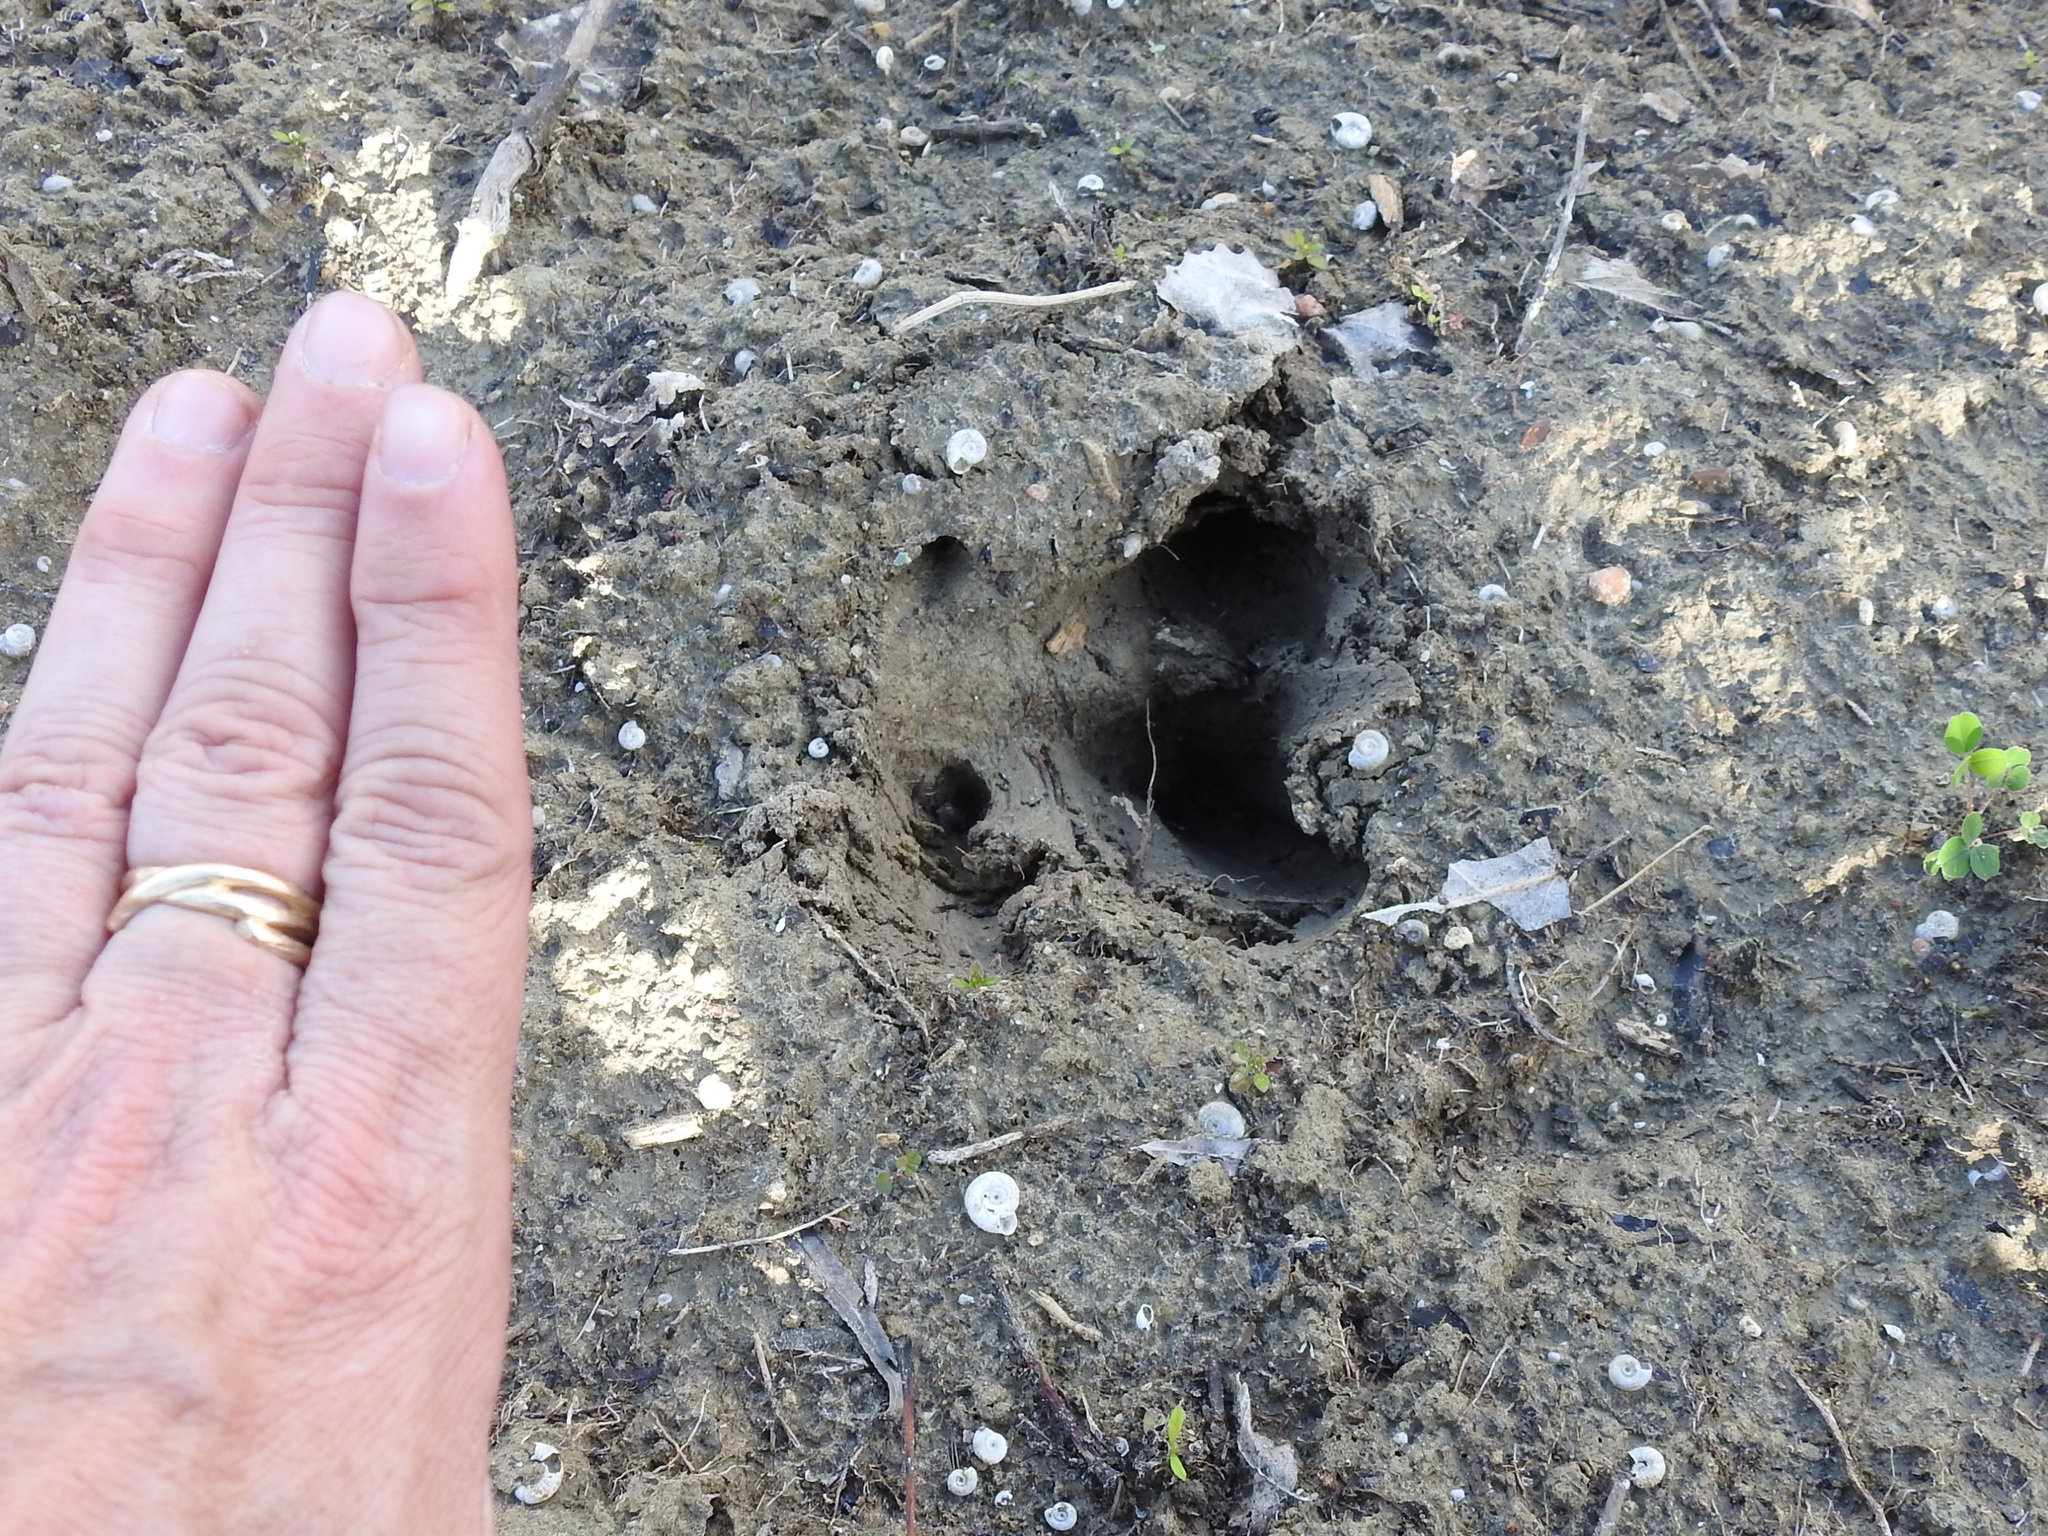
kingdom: Animalia
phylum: Chordata
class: Mammalia
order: Artiodactyla
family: Suidae
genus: Sus
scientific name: Sus scrofa
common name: Wild boar
